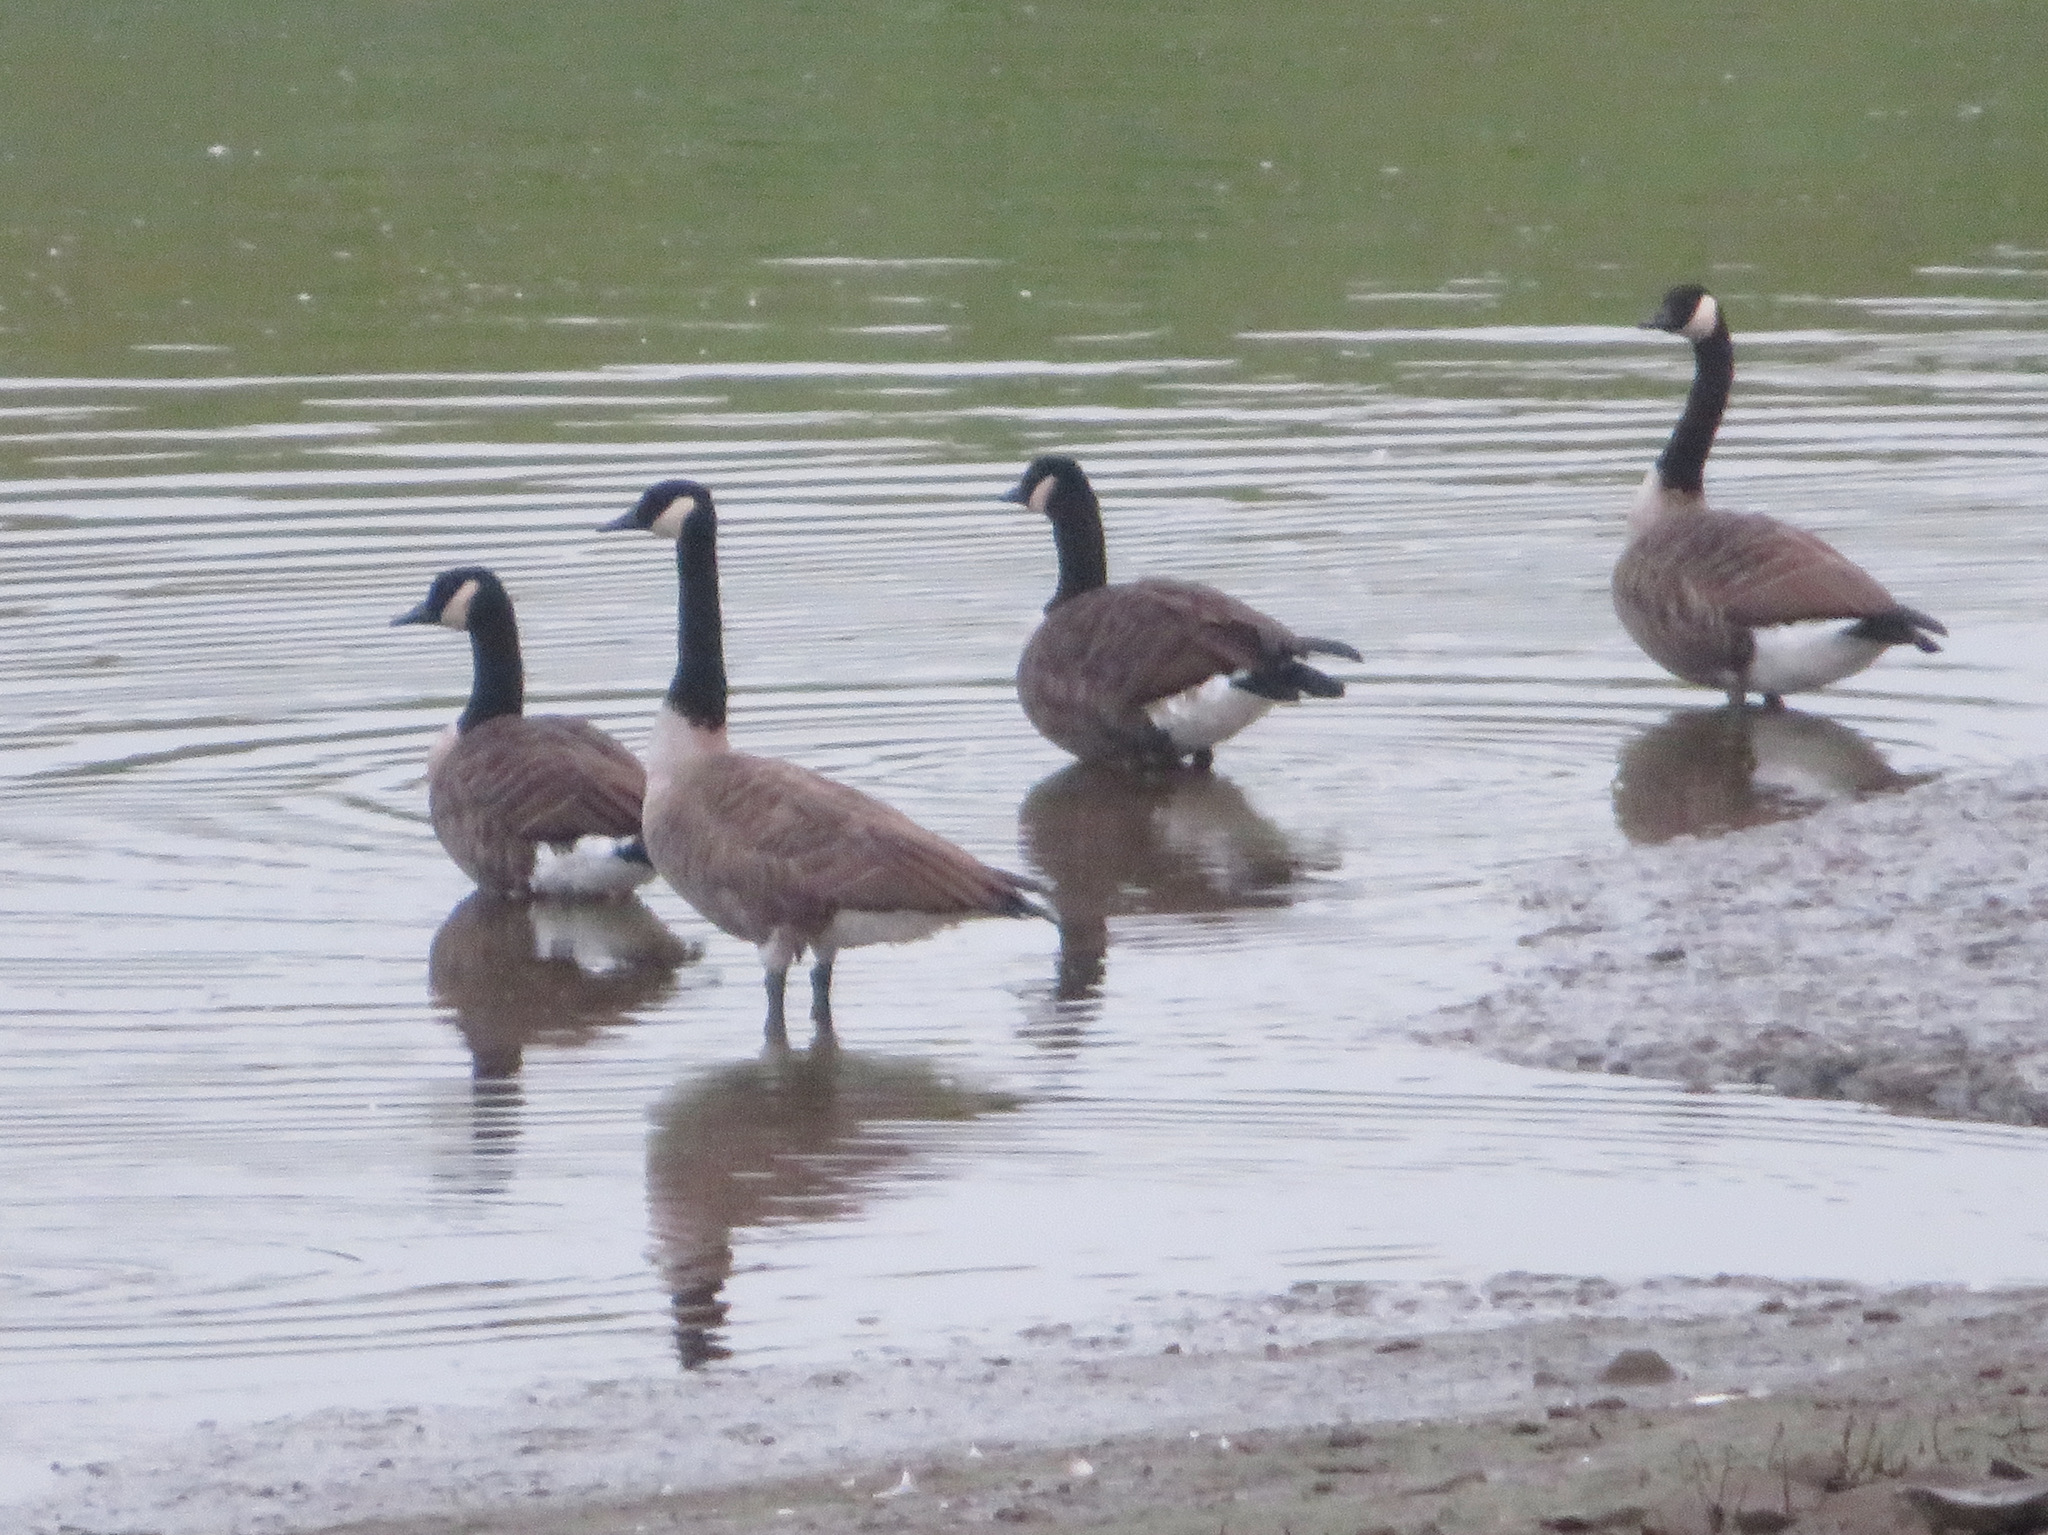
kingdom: Animalia
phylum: Chordata
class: Aves
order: Anseriformes
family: Anatidae
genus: Branta
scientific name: Branta canadensis
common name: Canada goose
